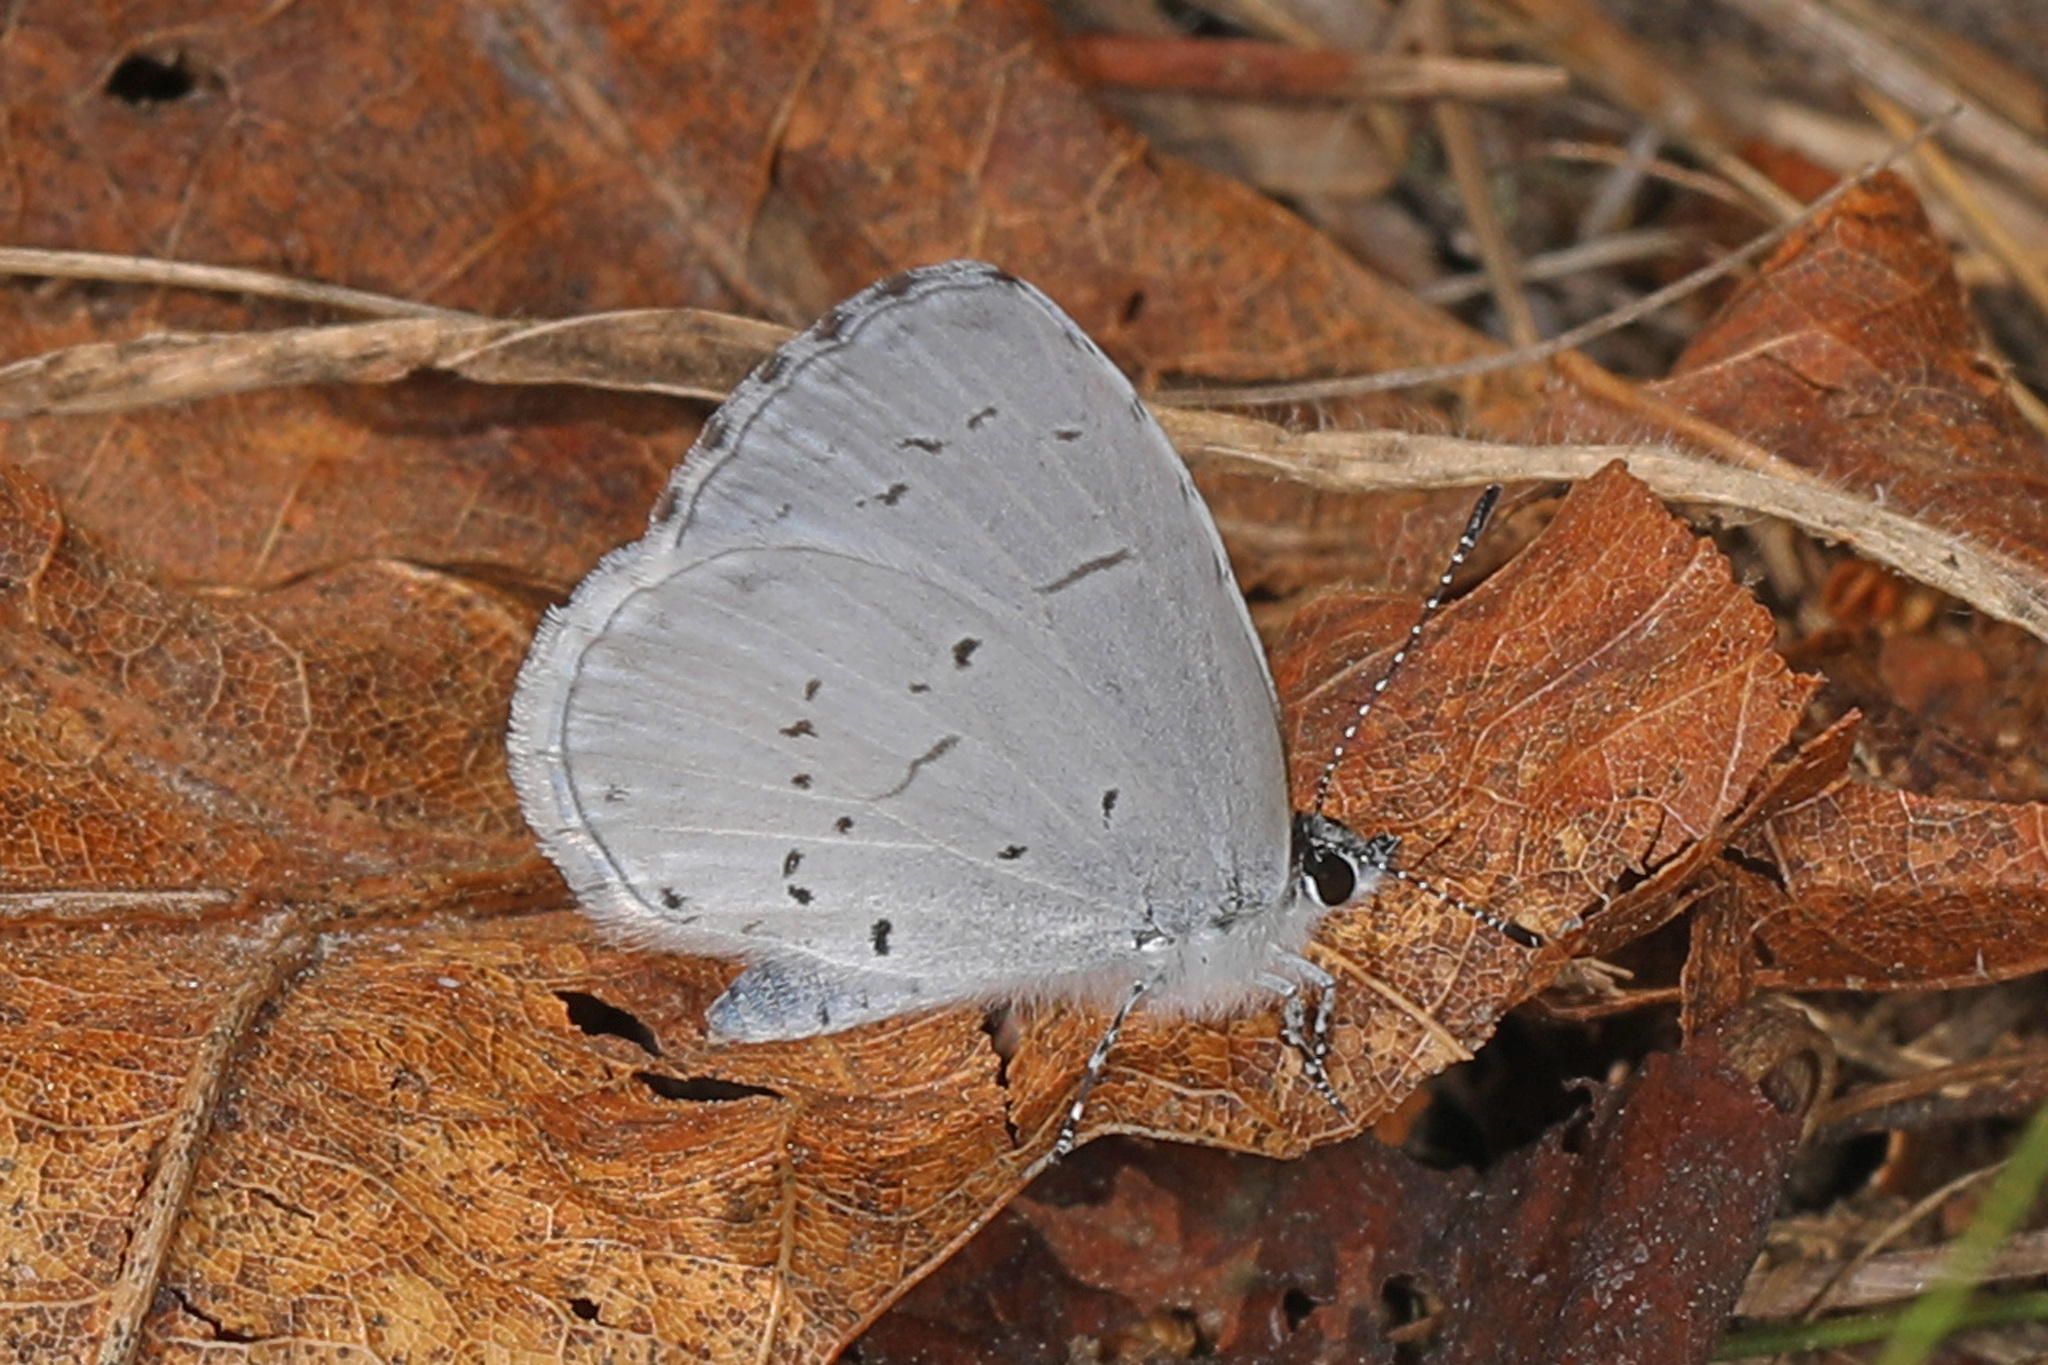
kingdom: Animalia
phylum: Arthropoda
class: Insecta
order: Lepidoptera
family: Lycaenidae
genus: Cyaniris
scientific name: Cyaniris neglecta
